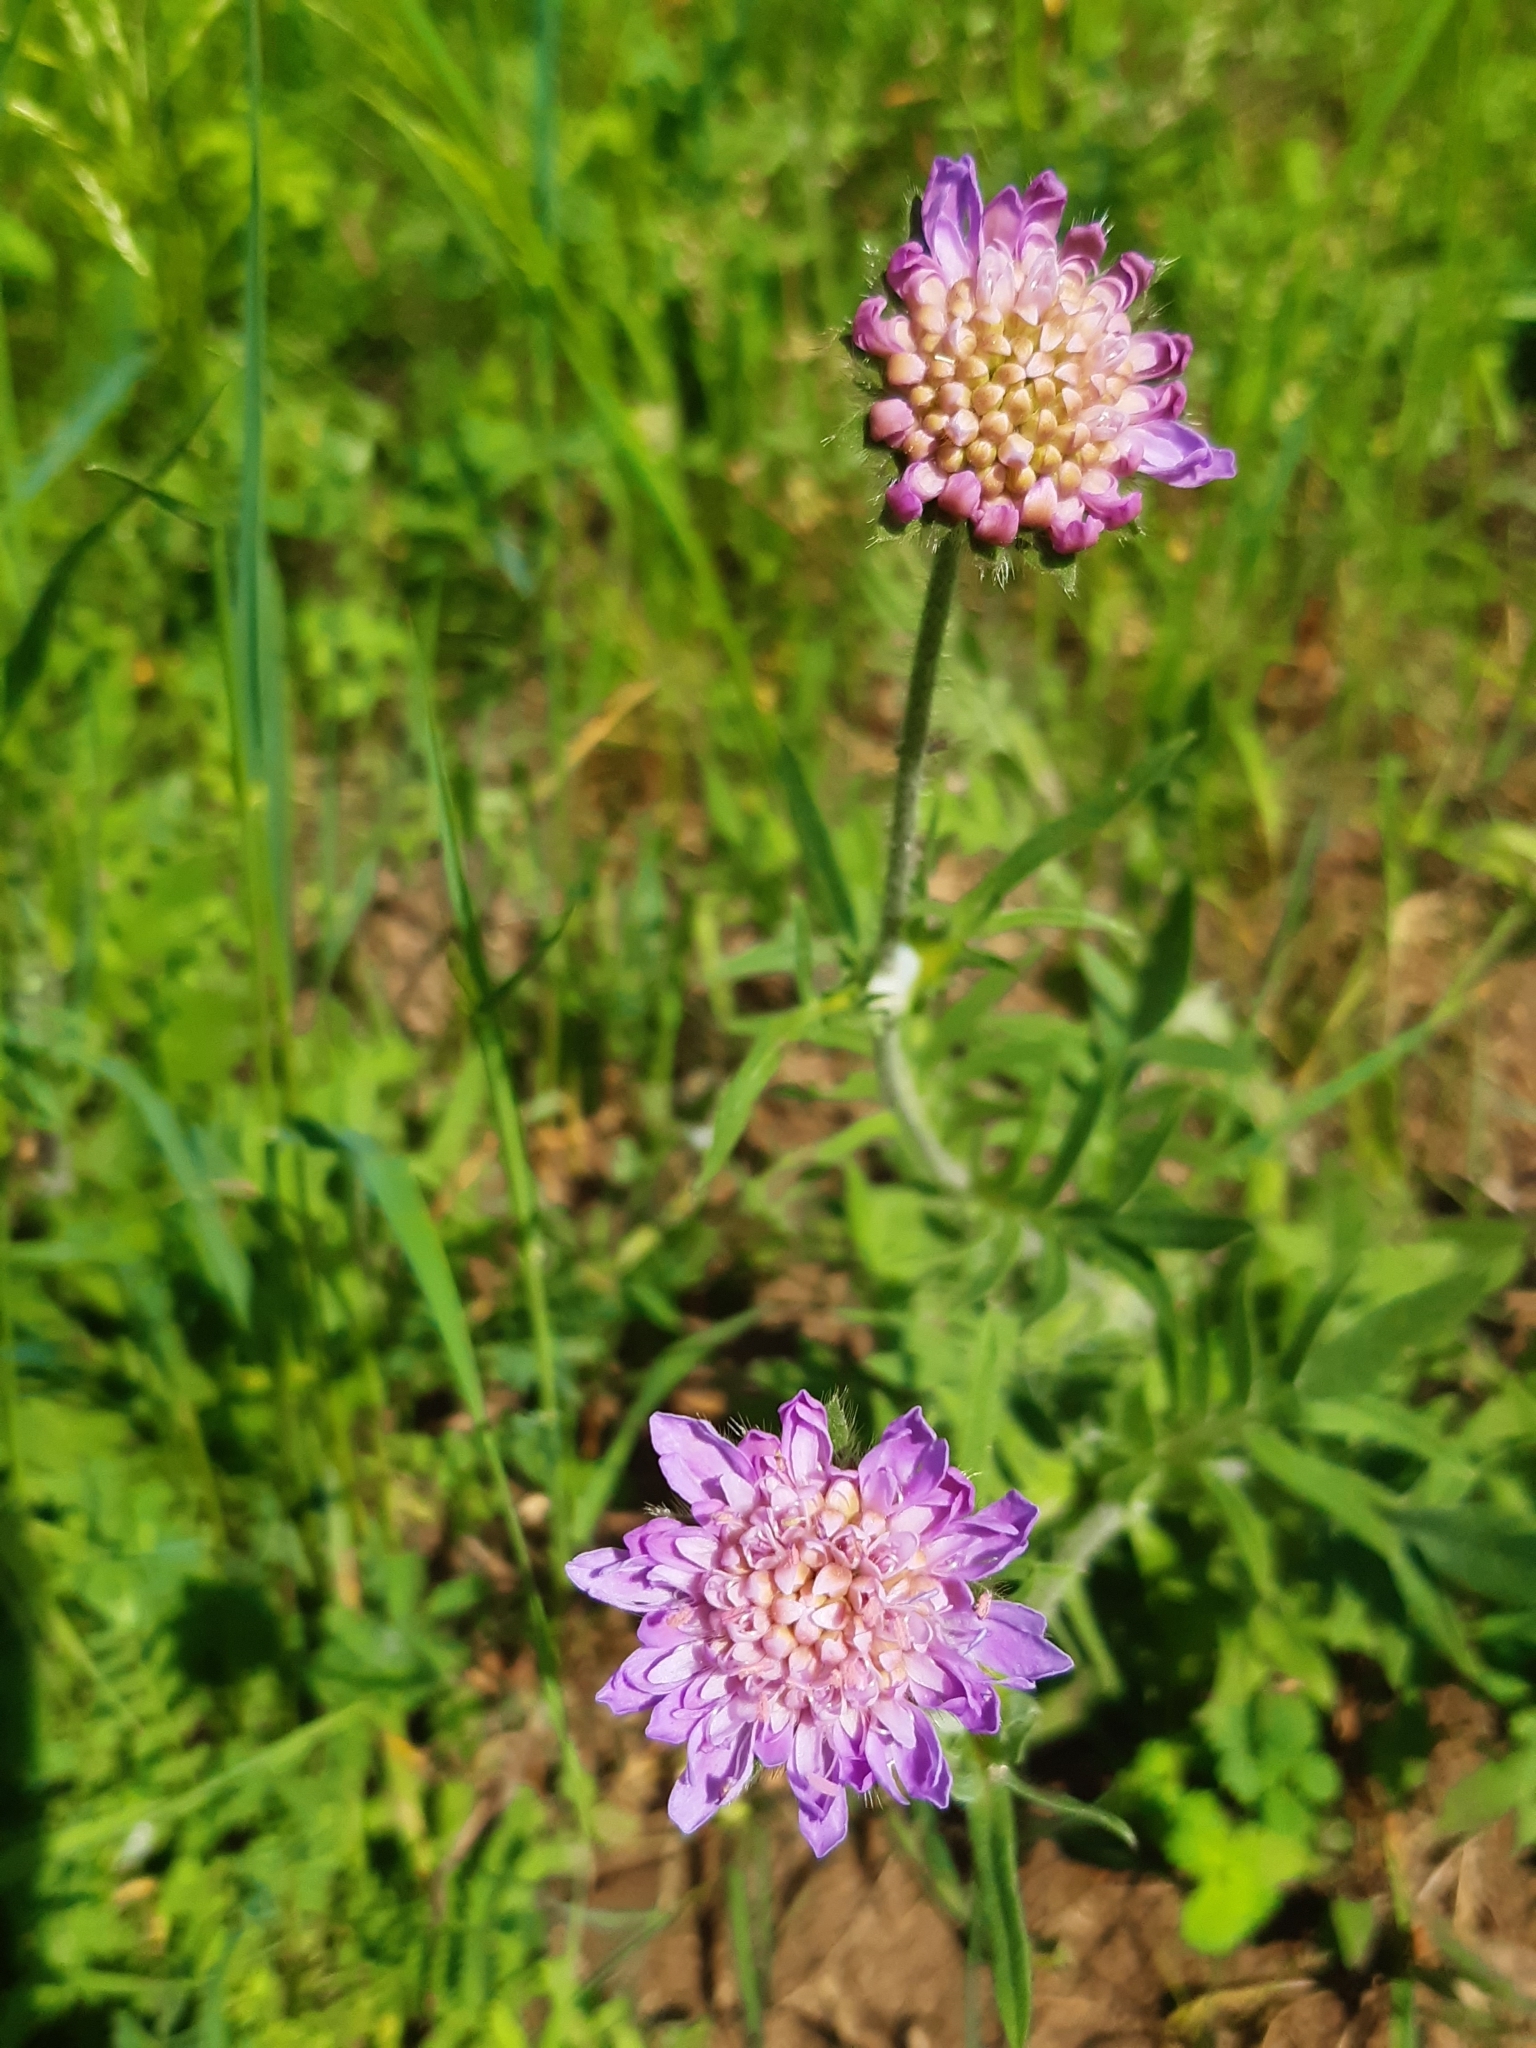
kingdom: Plantae
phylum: Tracheophyta
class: Magnoliopsida
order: Dipsacales
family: Caprifoliaceae
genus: Knautia
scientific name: Knautia arvensis
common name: Field scabiosa
